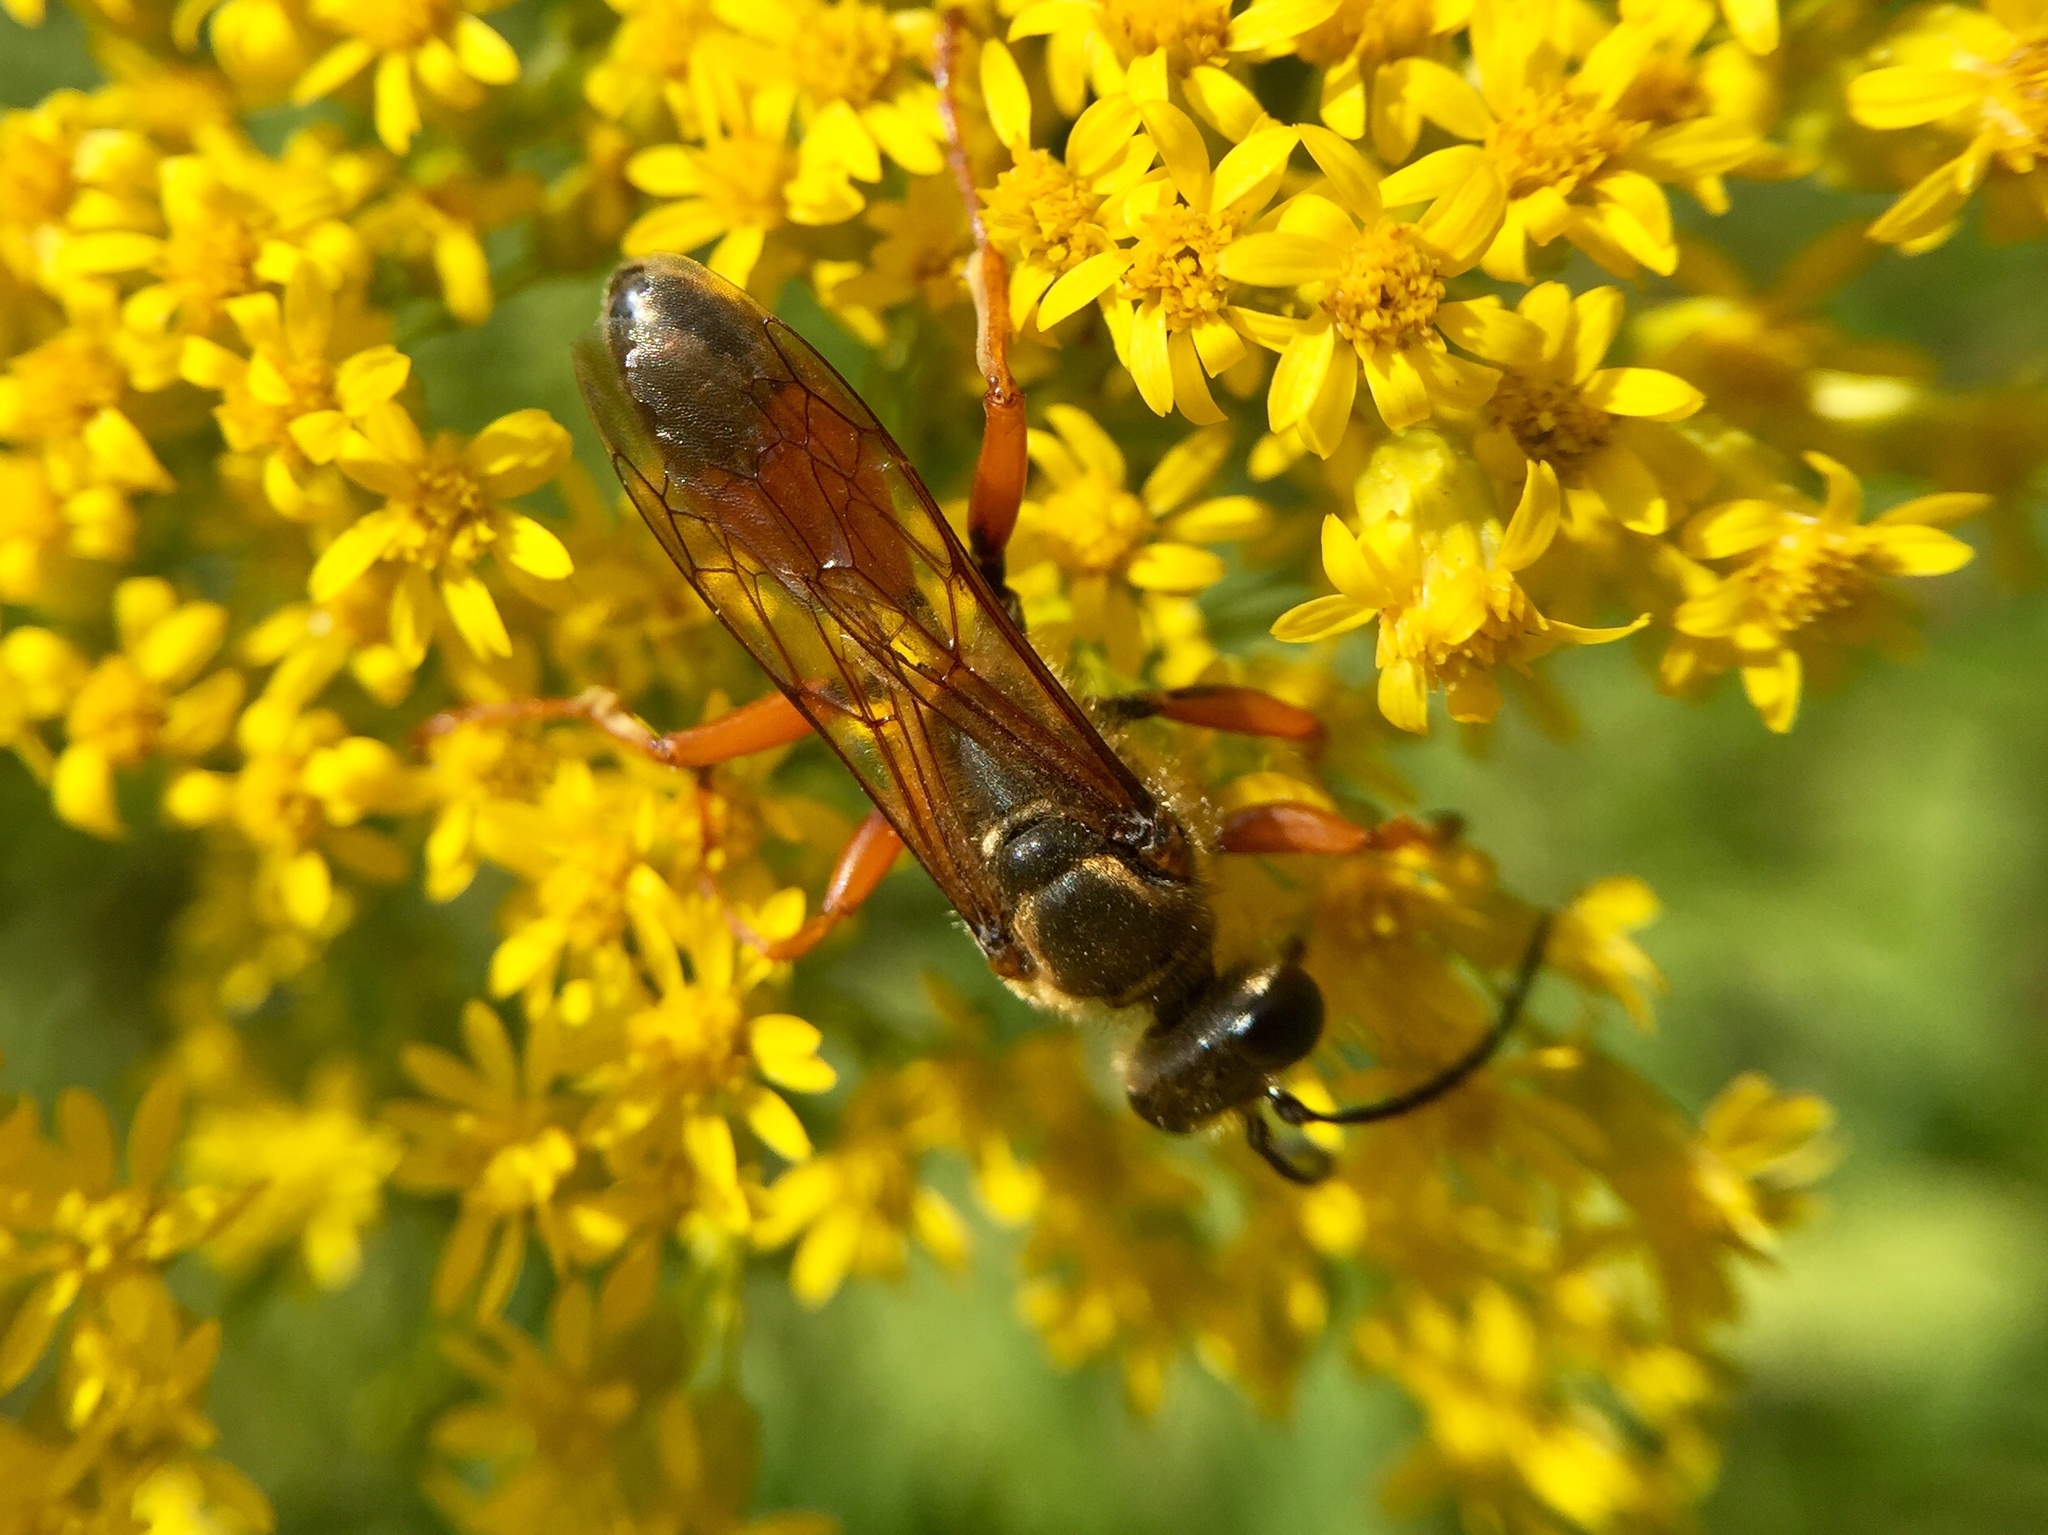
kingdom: Animalia
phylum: Arthropoda
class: Insecta
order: Hymenoptera
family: Sphecidae
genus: Sphex
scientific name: Sphex ichneumoneus
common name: Great golden digger wasp
